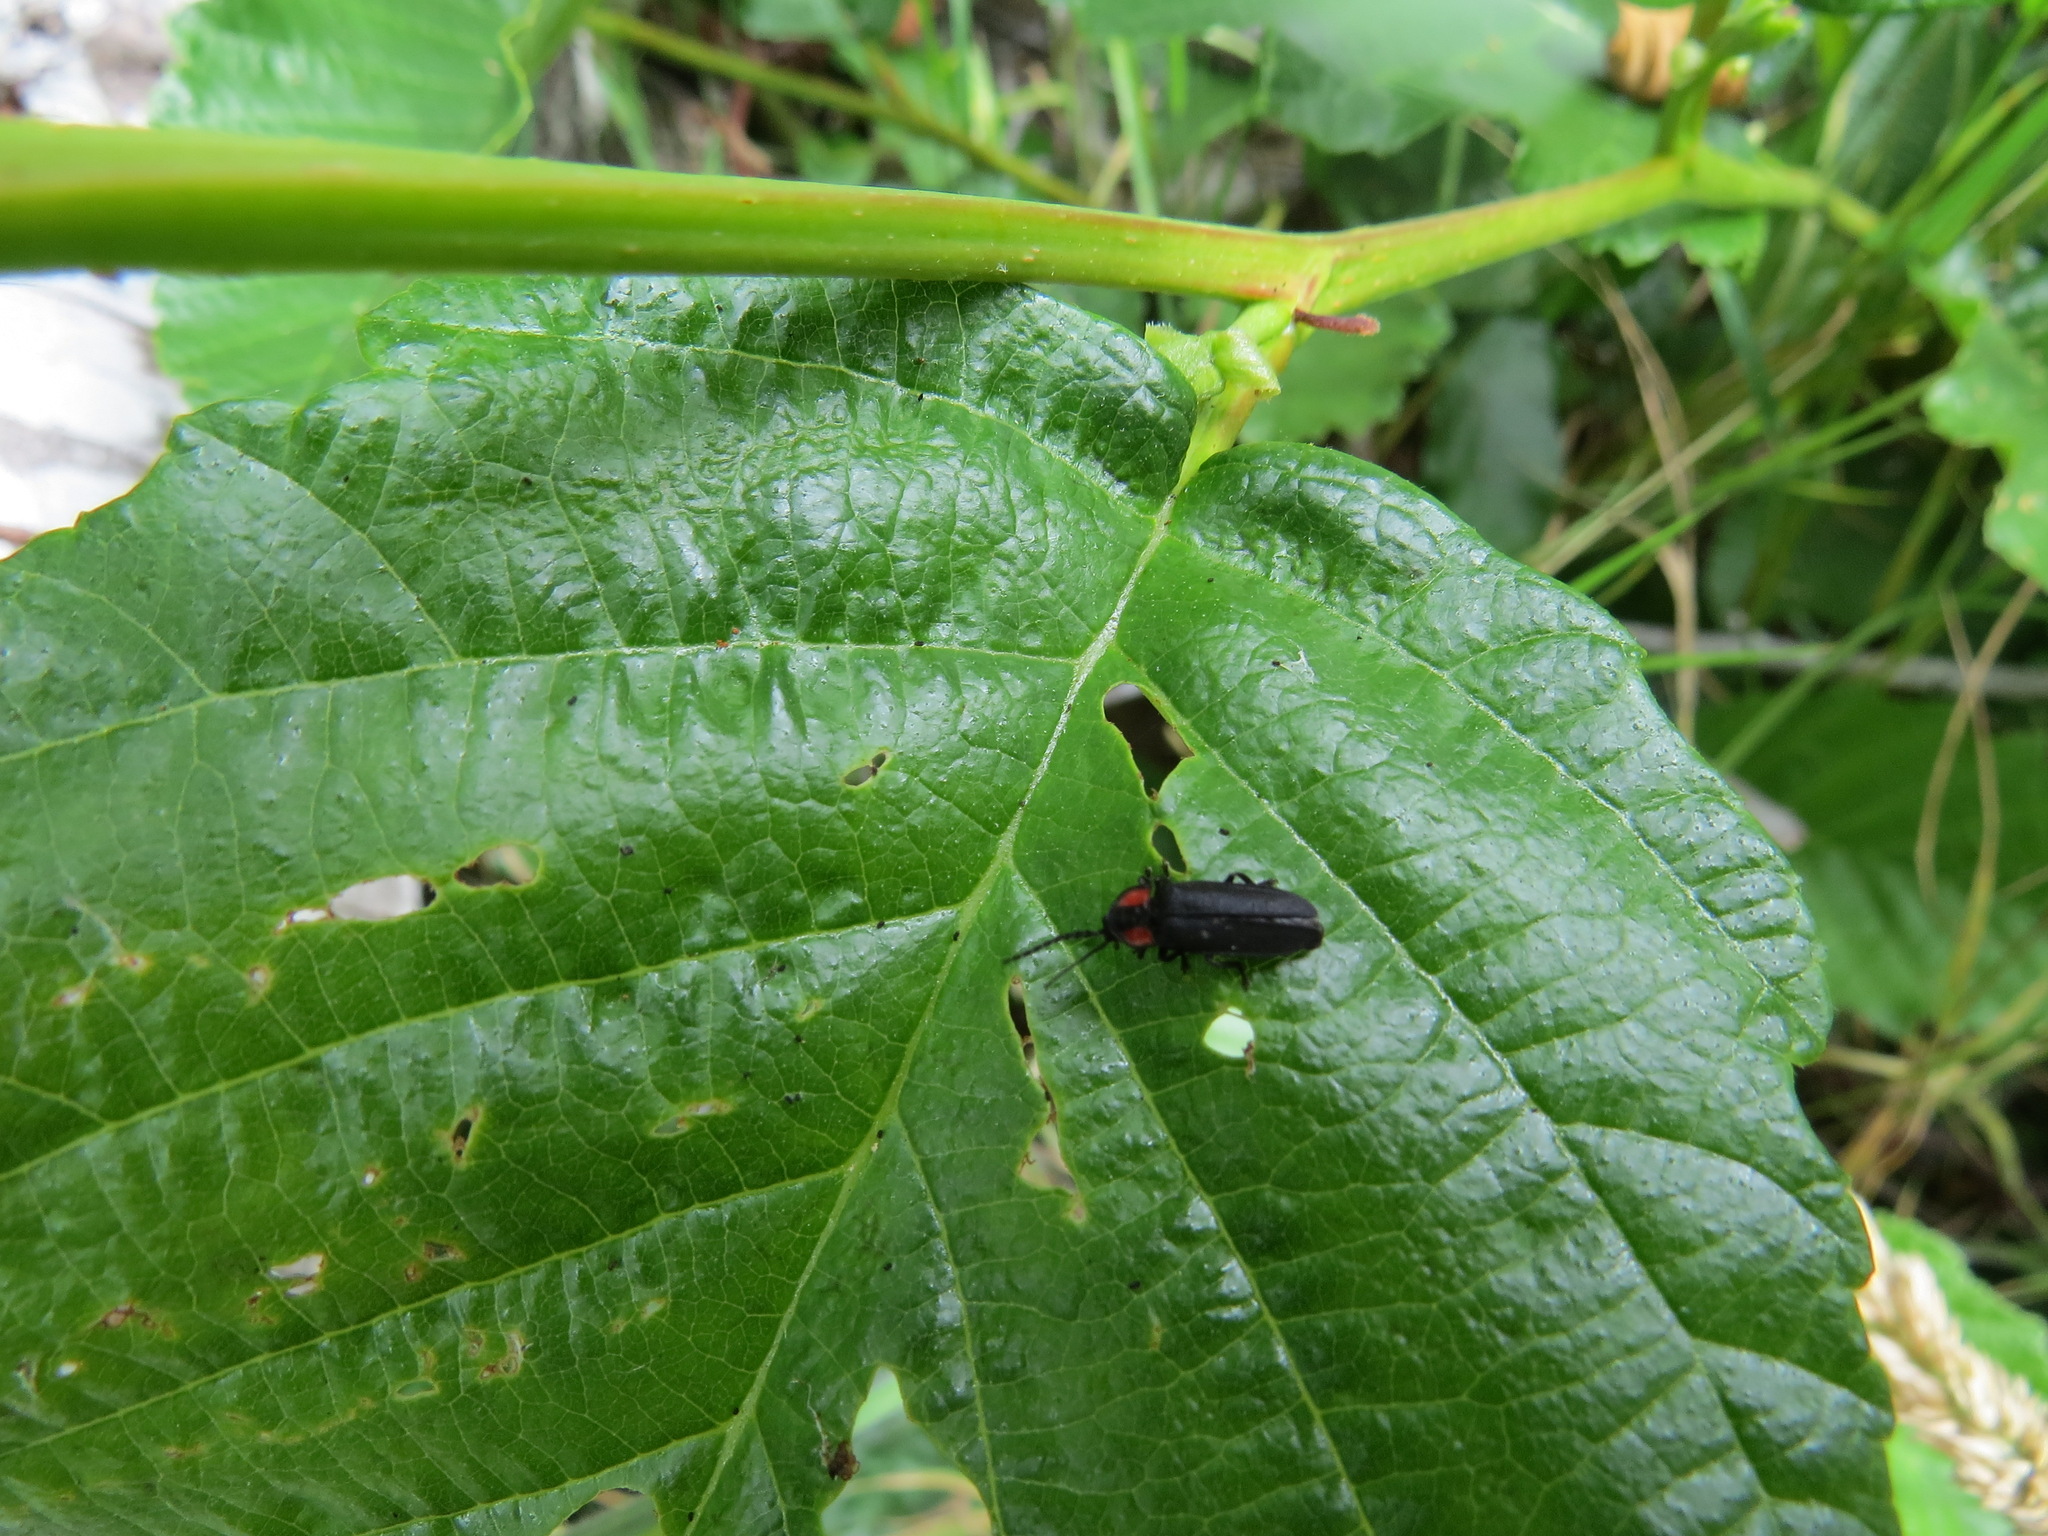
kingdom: Animalia
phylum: Arthropoda
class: Insecta
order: Coleoptera
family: Lampyridae
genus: Pyropyga
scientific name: Pyropyga nigricans
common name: Dark firefly
